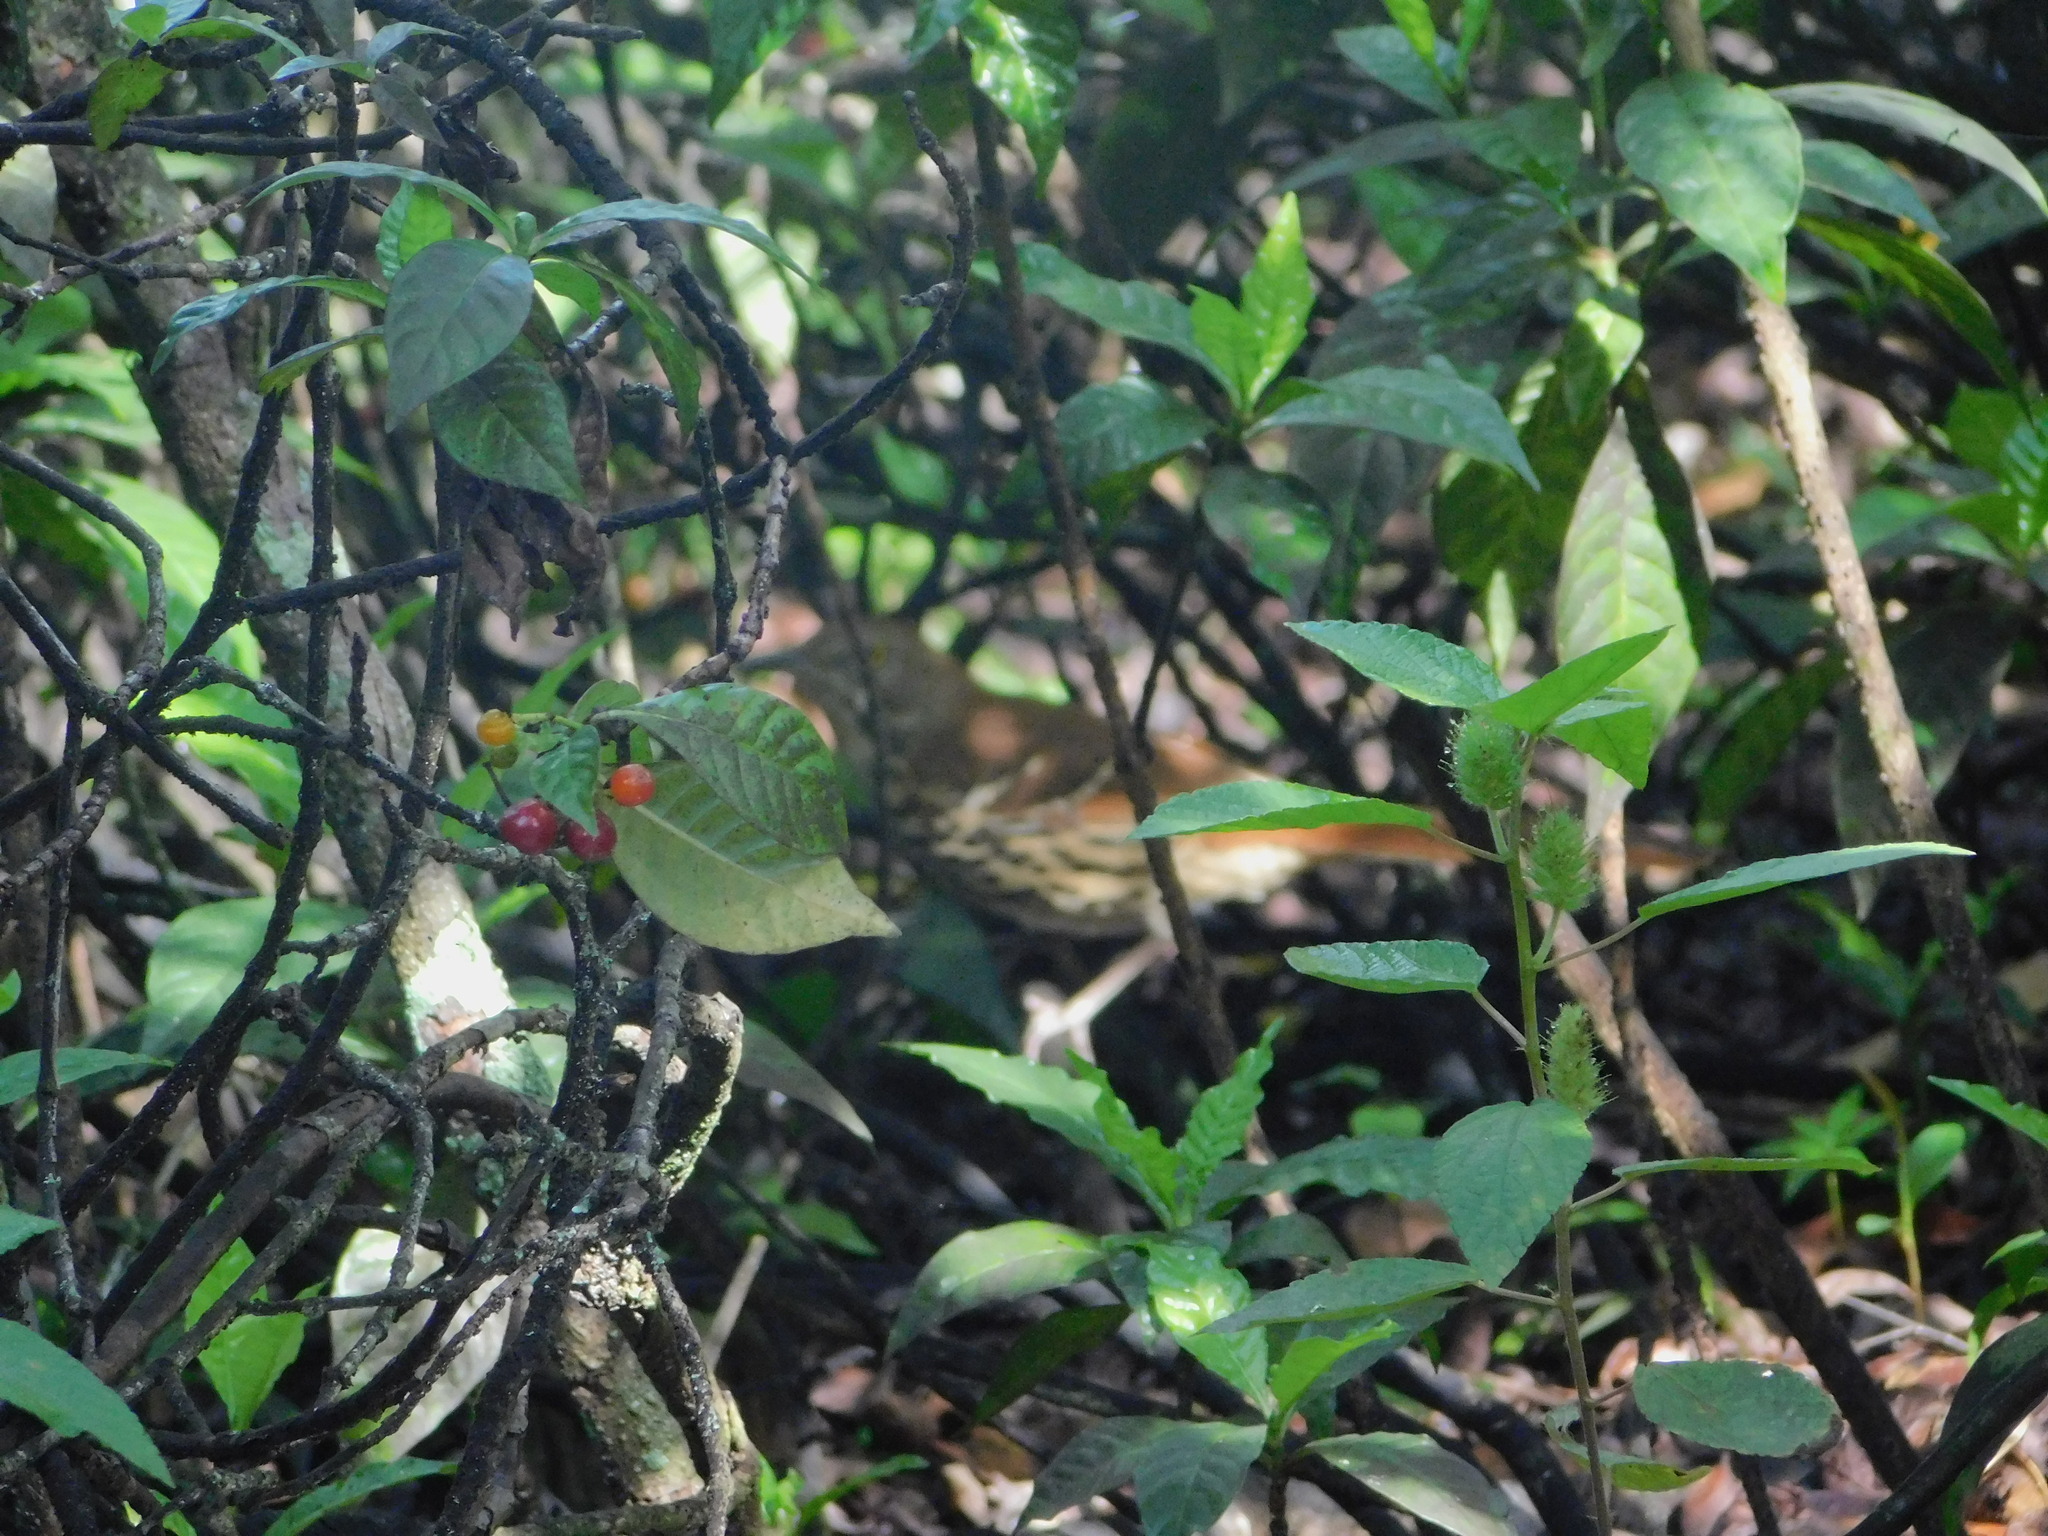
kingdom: Animalia
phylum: Chordata
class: Aves
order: Passeriformes
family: Mimidae
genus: Toxostoma
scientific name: Toxostoma rufum
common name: Brown thrasher
